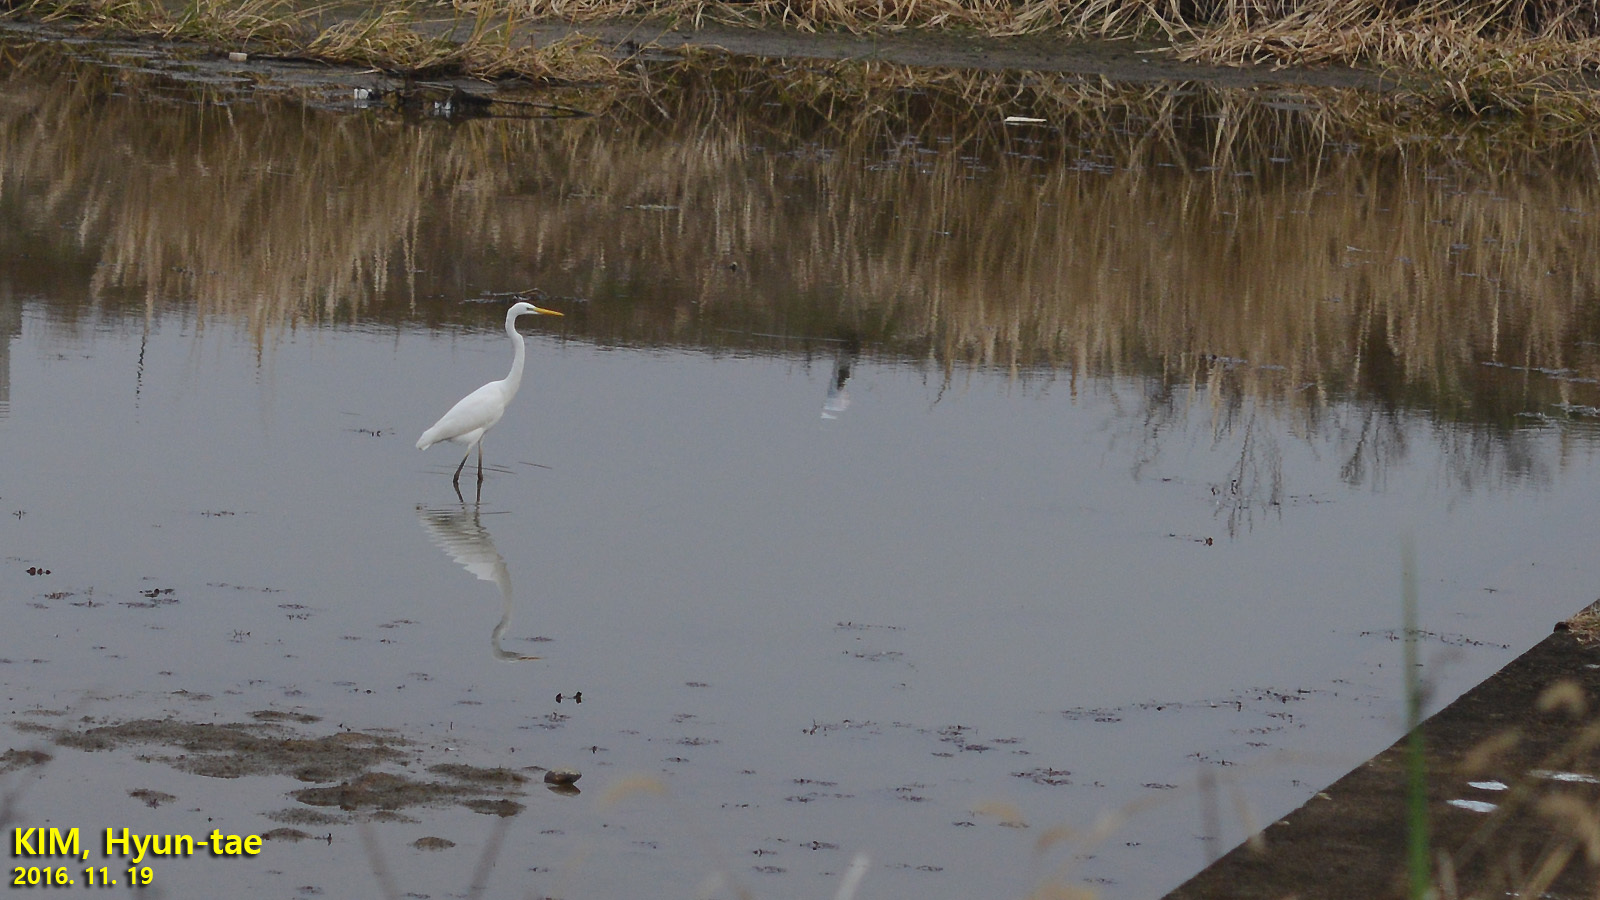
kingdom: Animalia
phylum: Chordata
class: Aves
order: Pelecaniformes
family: Ardeidae
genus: Ardea
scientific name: Ardea alba
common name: Great egret
